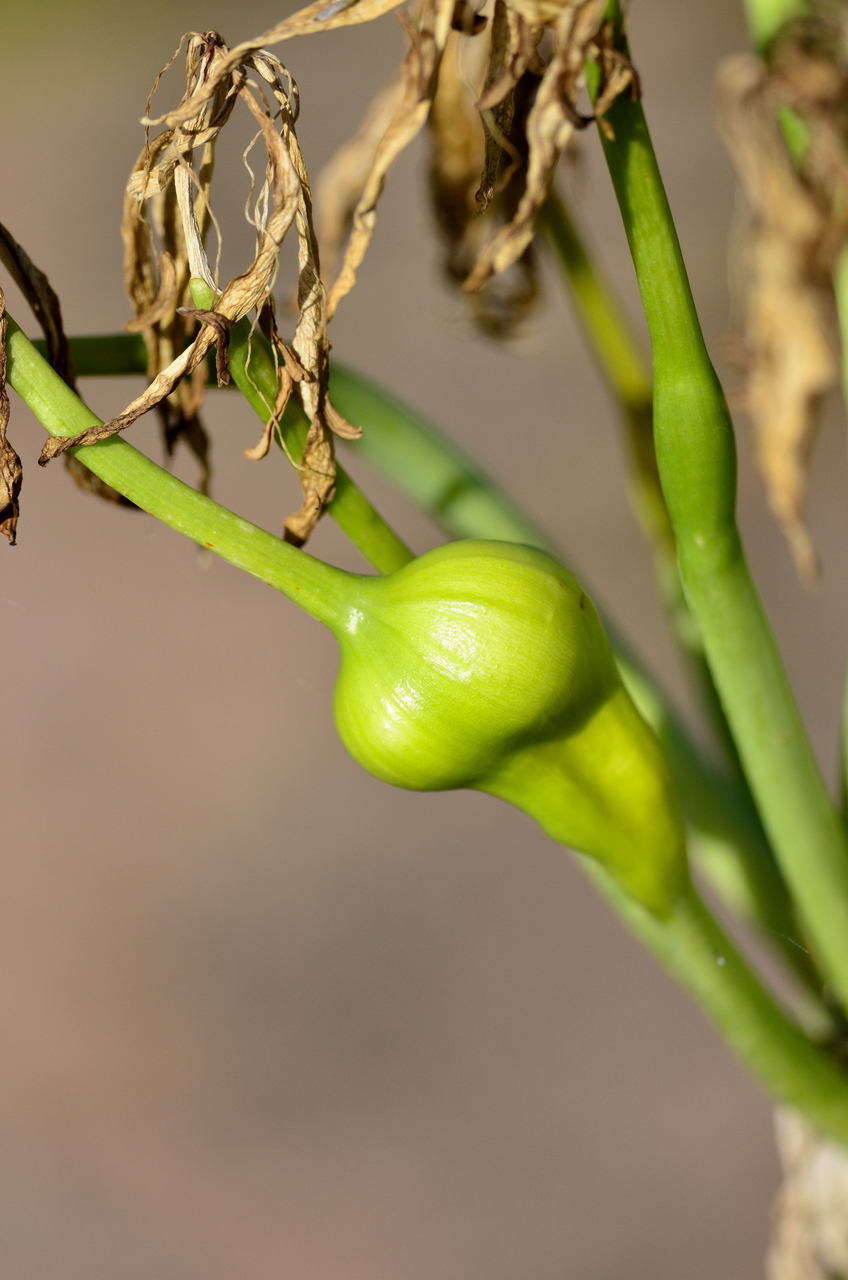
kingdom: Plantae
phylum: Tracheophyta
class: Liliopsida
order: Asparagales
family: Amaryllidaceae
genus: Crinum
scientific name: Crinum flaccidum
